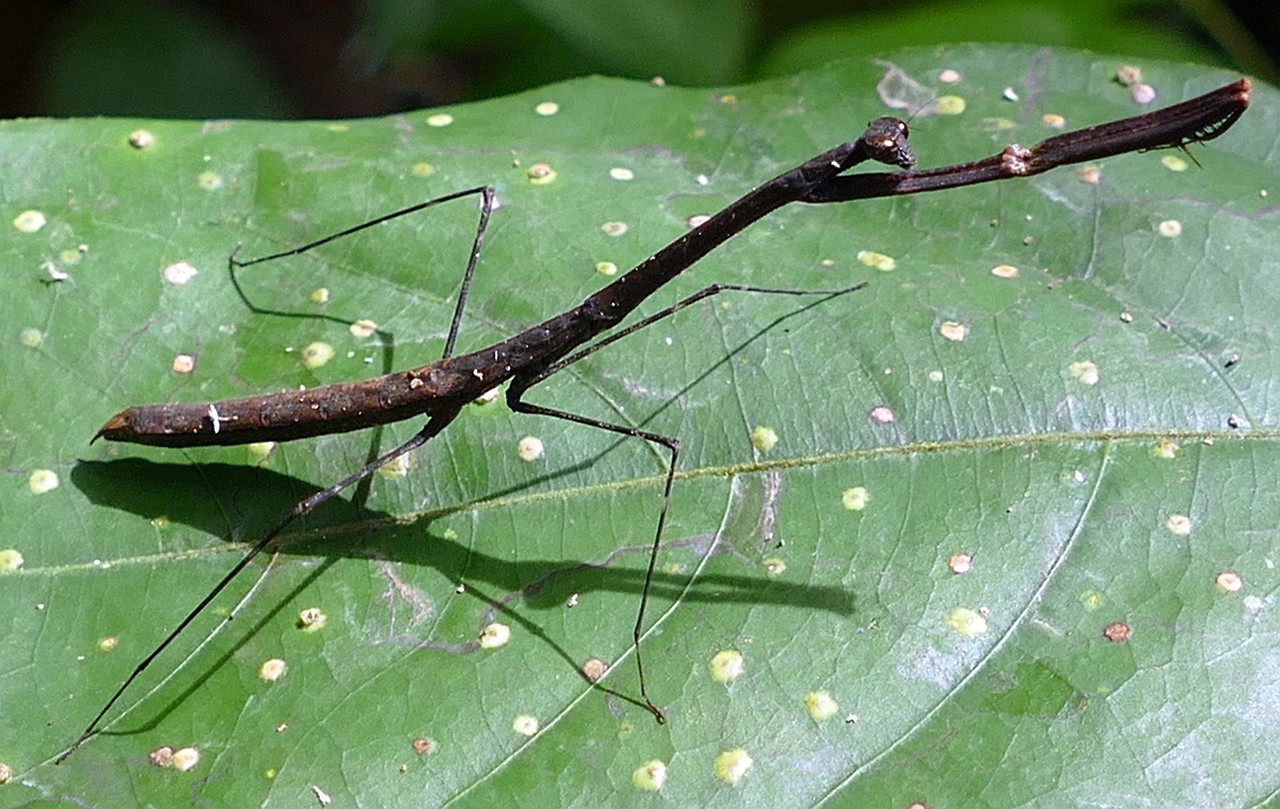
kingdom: Animalia
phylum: Arthropoda
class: Insecta
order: Mantodea
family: Thespidae
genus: Macromusonia
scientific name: Macromusonia conspersa
